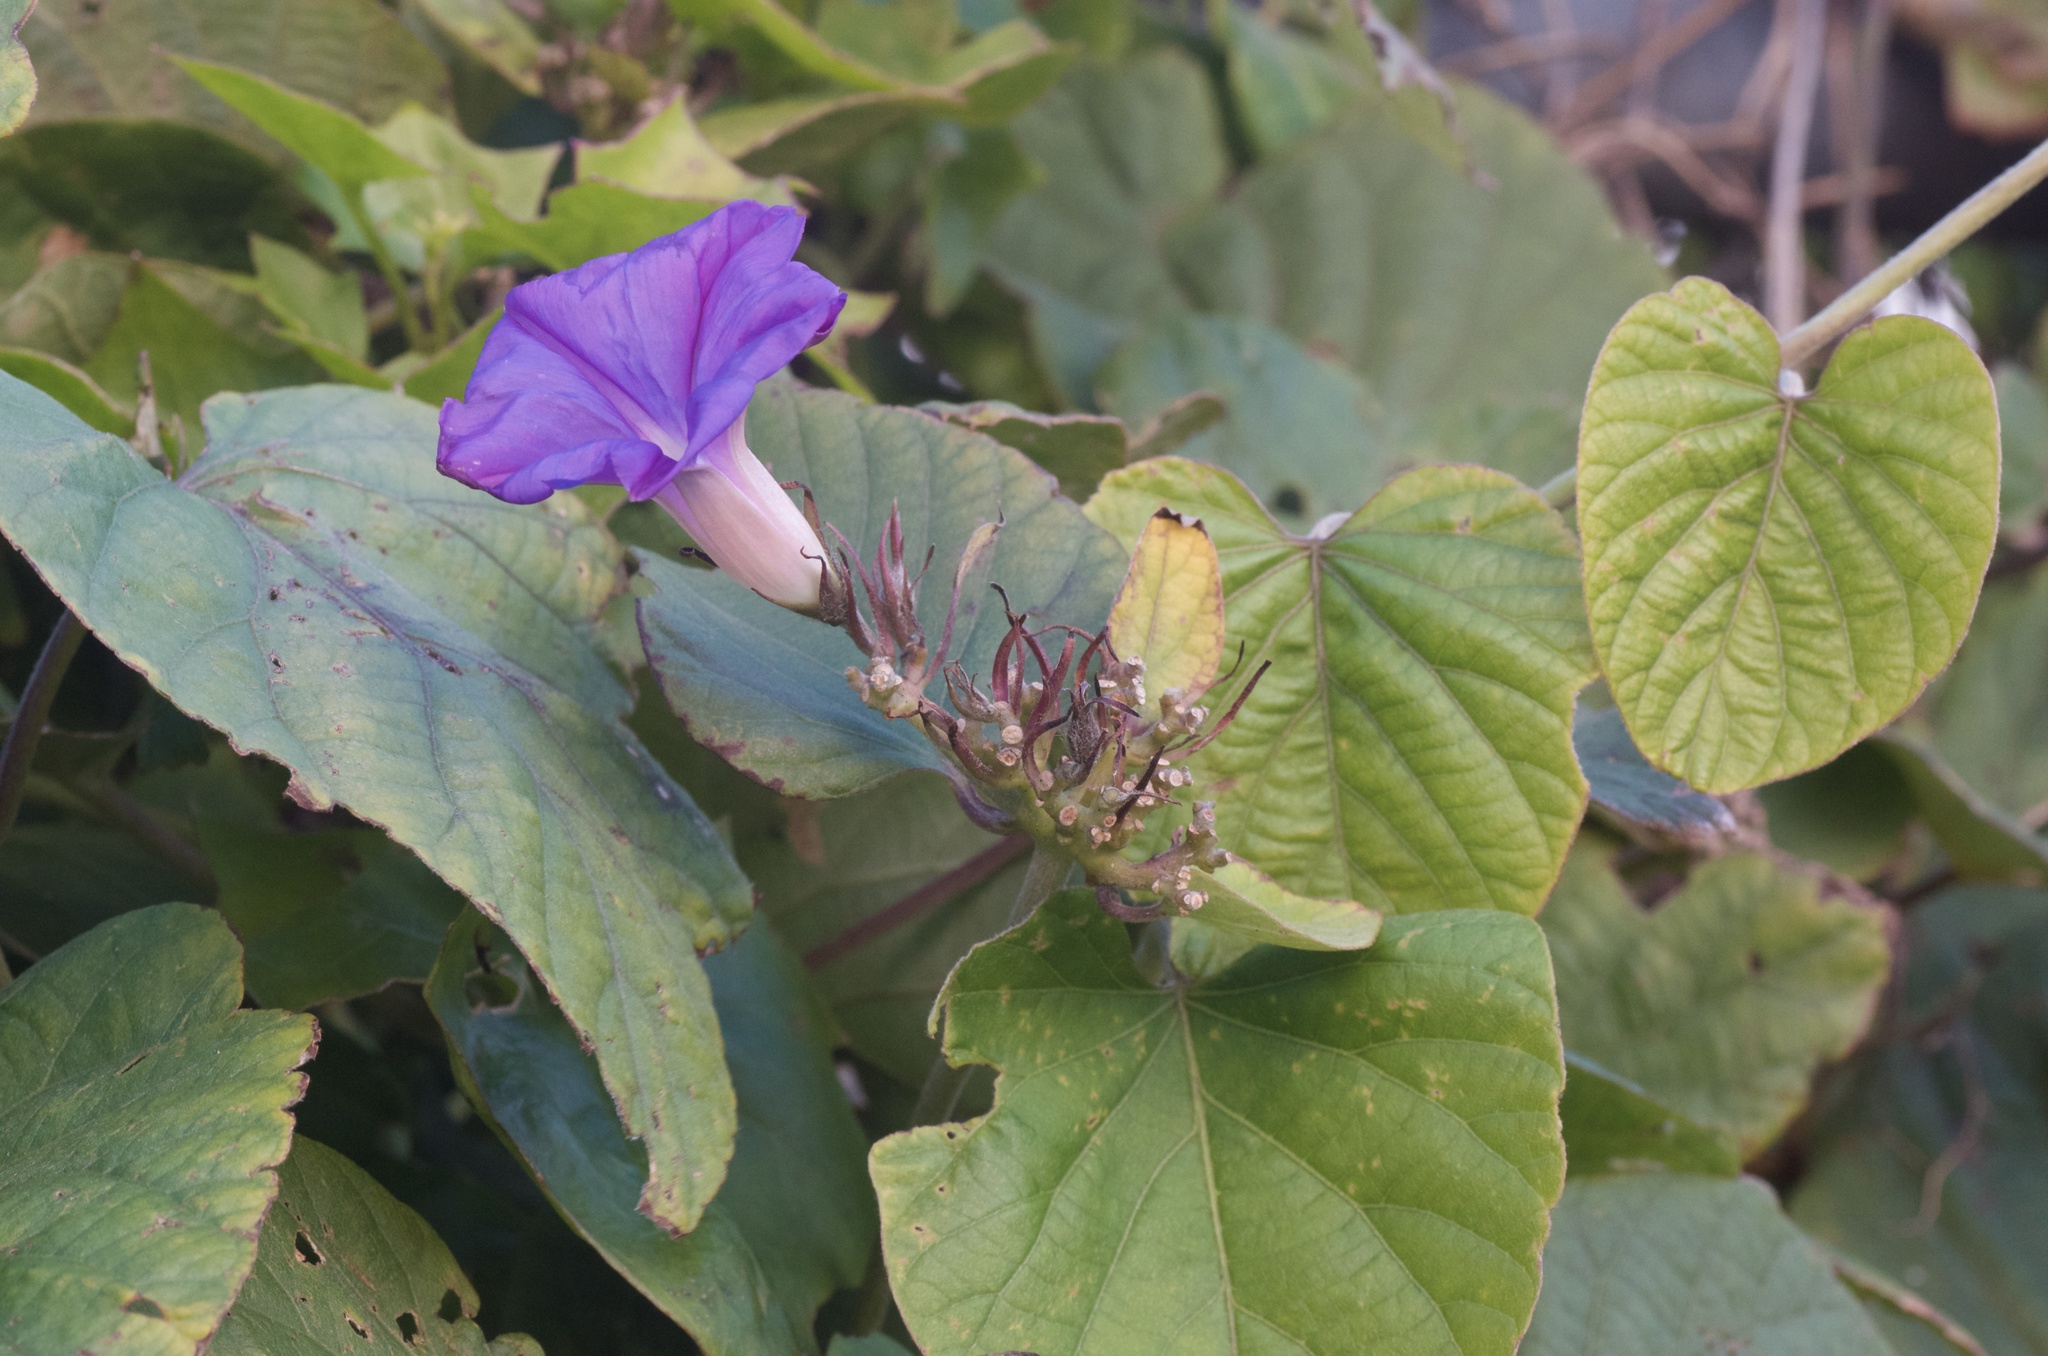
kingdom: Plantae
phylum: Tracheophyta
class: Magnoliopsida
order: Solanales
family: Convolvulaceae
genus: Ipomoea
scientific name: Ipomoea indica
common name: Blue dawnflower
